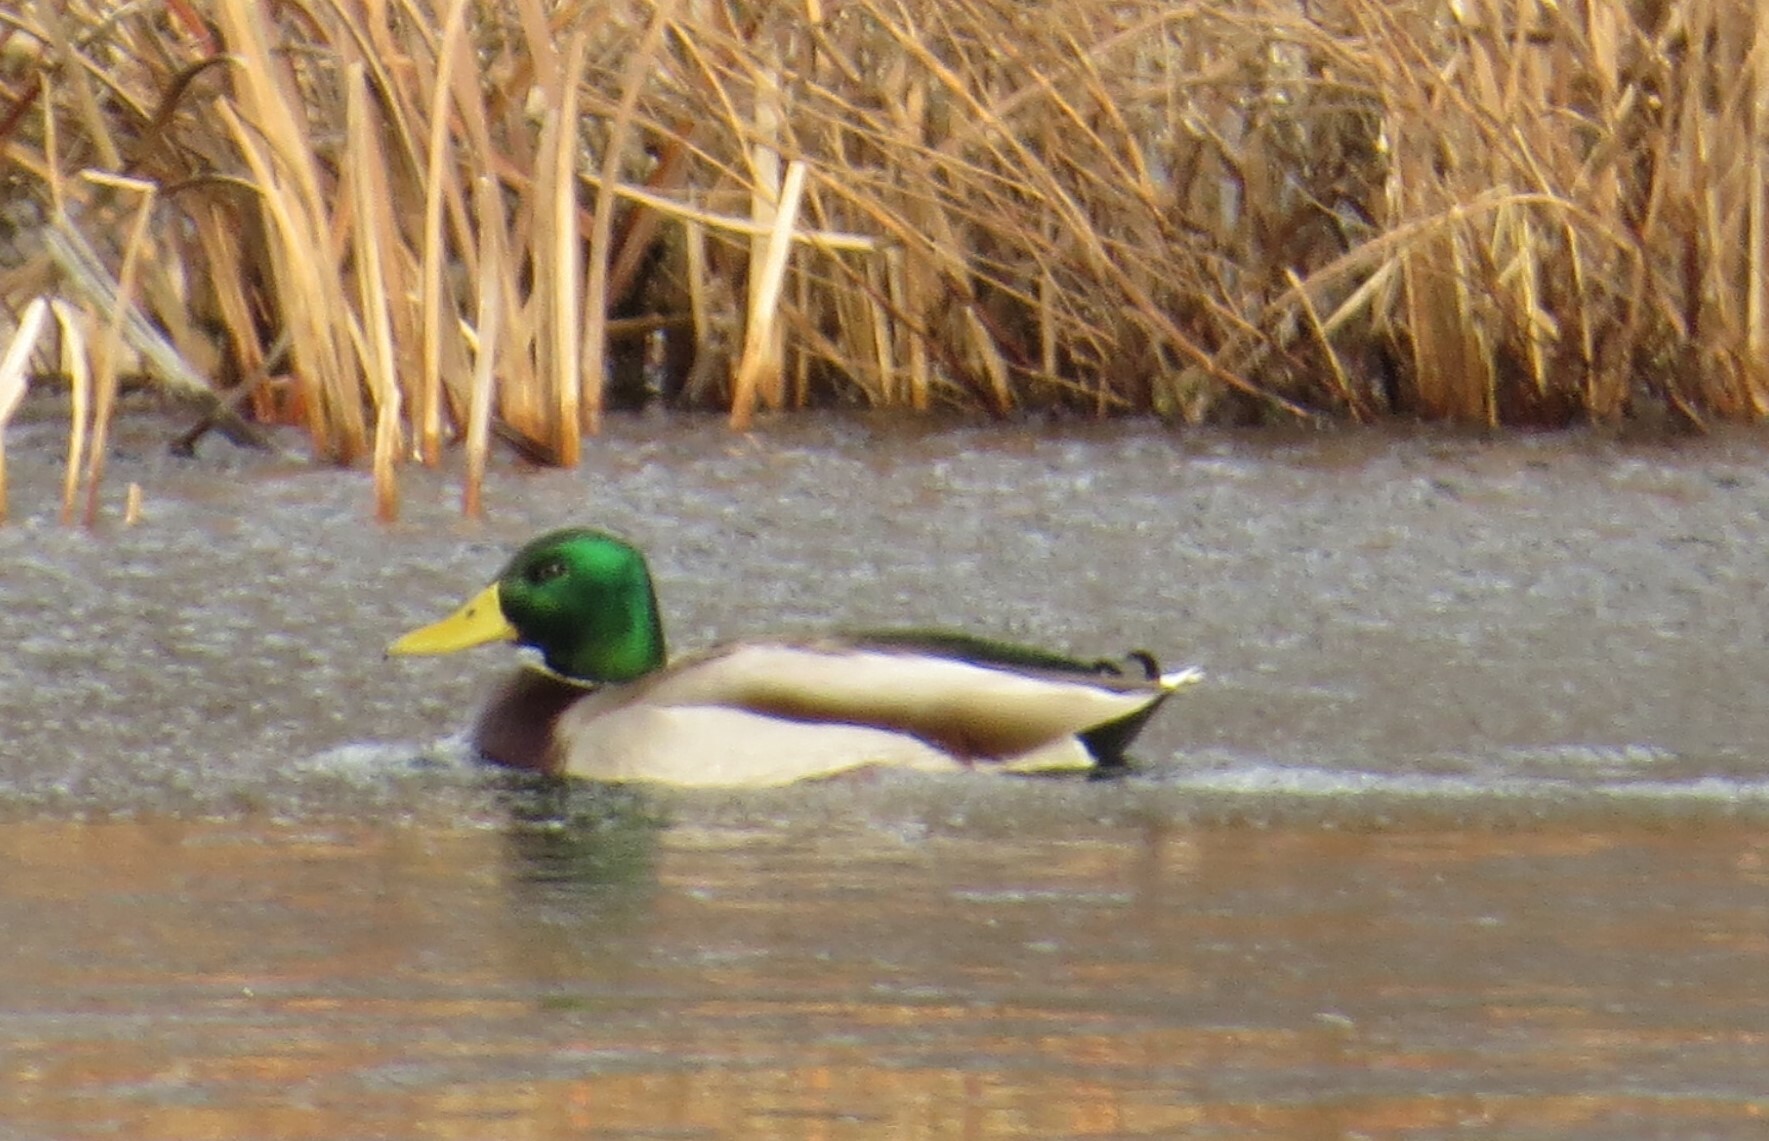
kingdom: Animalia
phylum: Chordata
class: Aves
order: Anseriformes
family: Anatidae
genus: Anas
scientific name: Anas platyrhynchos
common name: Mallard
